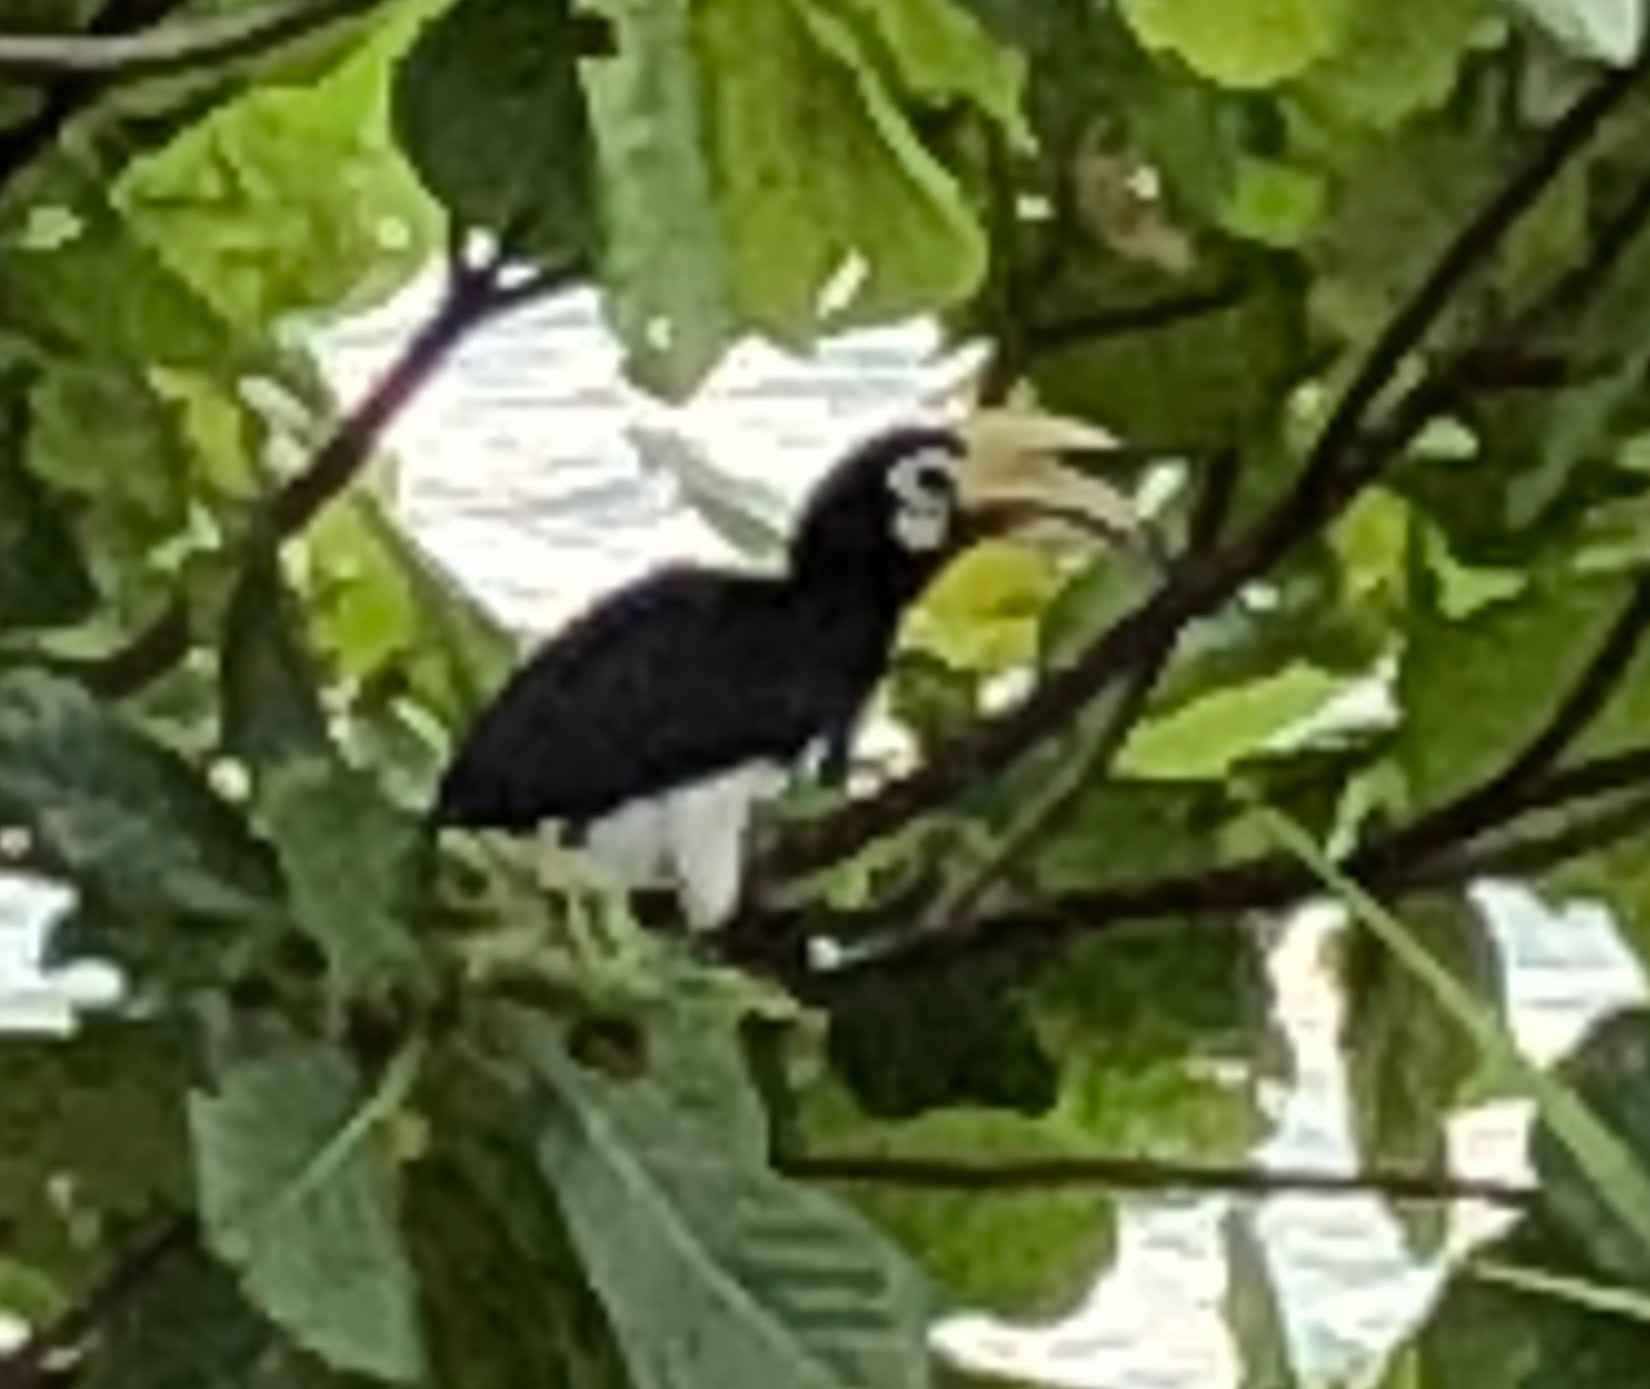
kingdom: Animalia
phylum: Chordata
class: Aves
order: Bucerotiformes
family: Bucerotidae
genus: Anthracoceros
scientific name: Anthracoceros albirostris
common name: Oriental pied-hornbill
